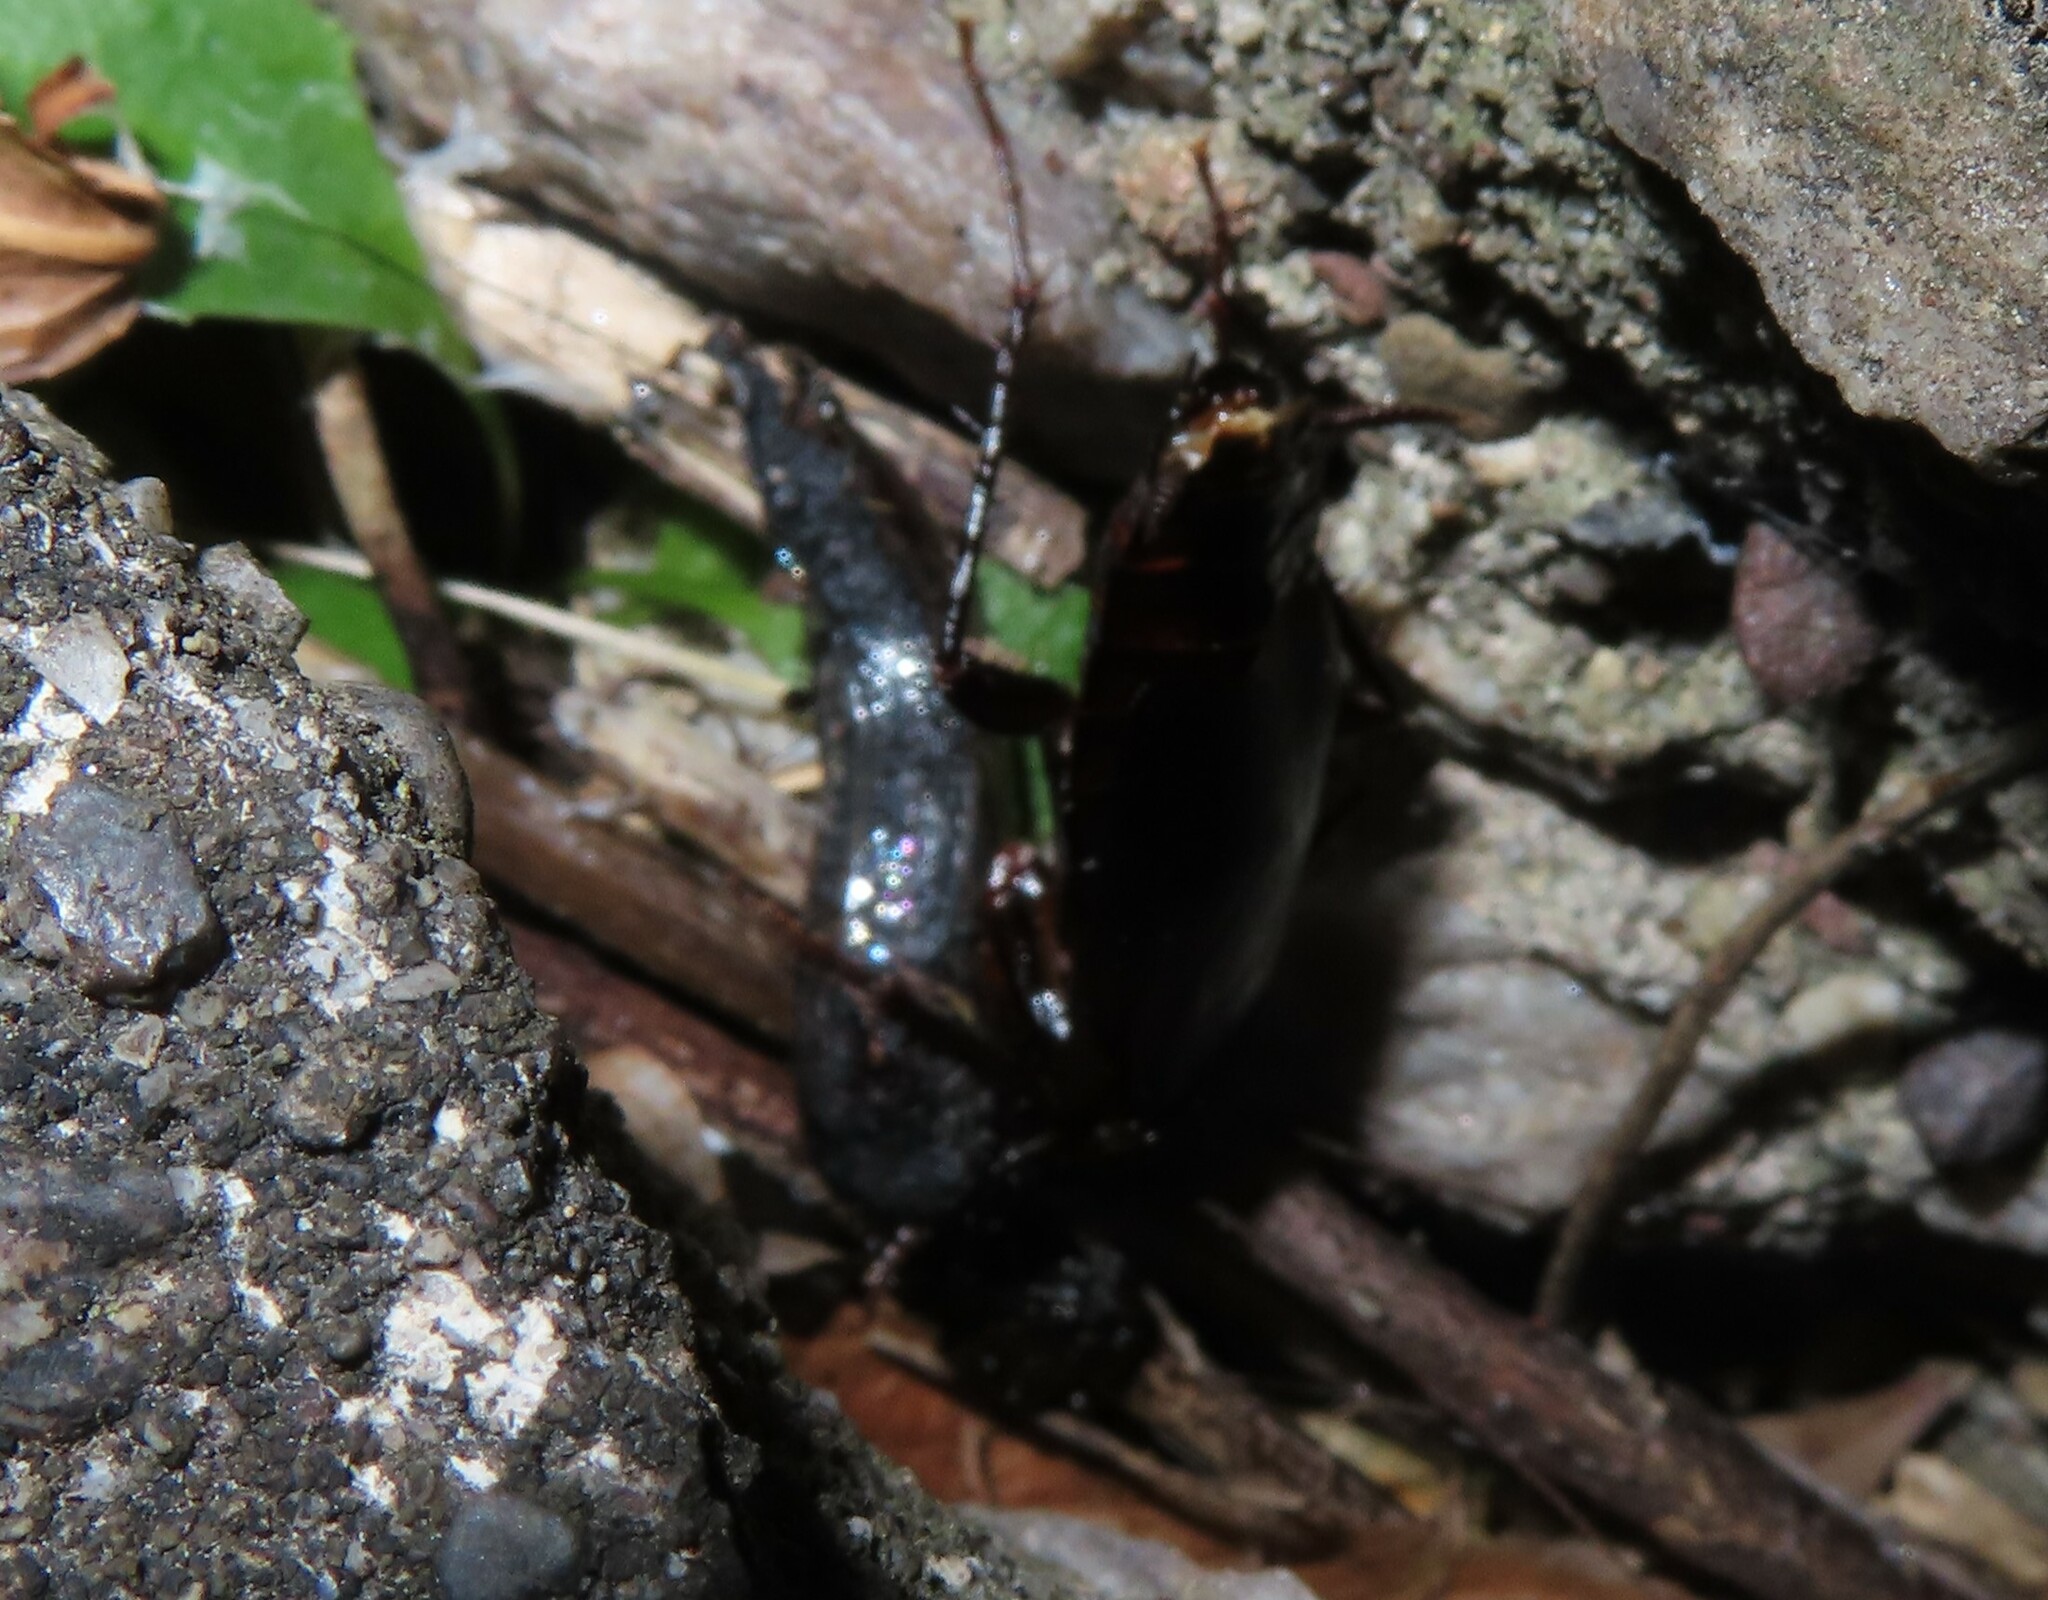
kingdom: Animalia
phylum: Arthropoda
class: Insecta
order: Blattodea
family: Blattidae
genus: Blatta
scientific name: Blatta orientalis
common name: Oriental cockroach
